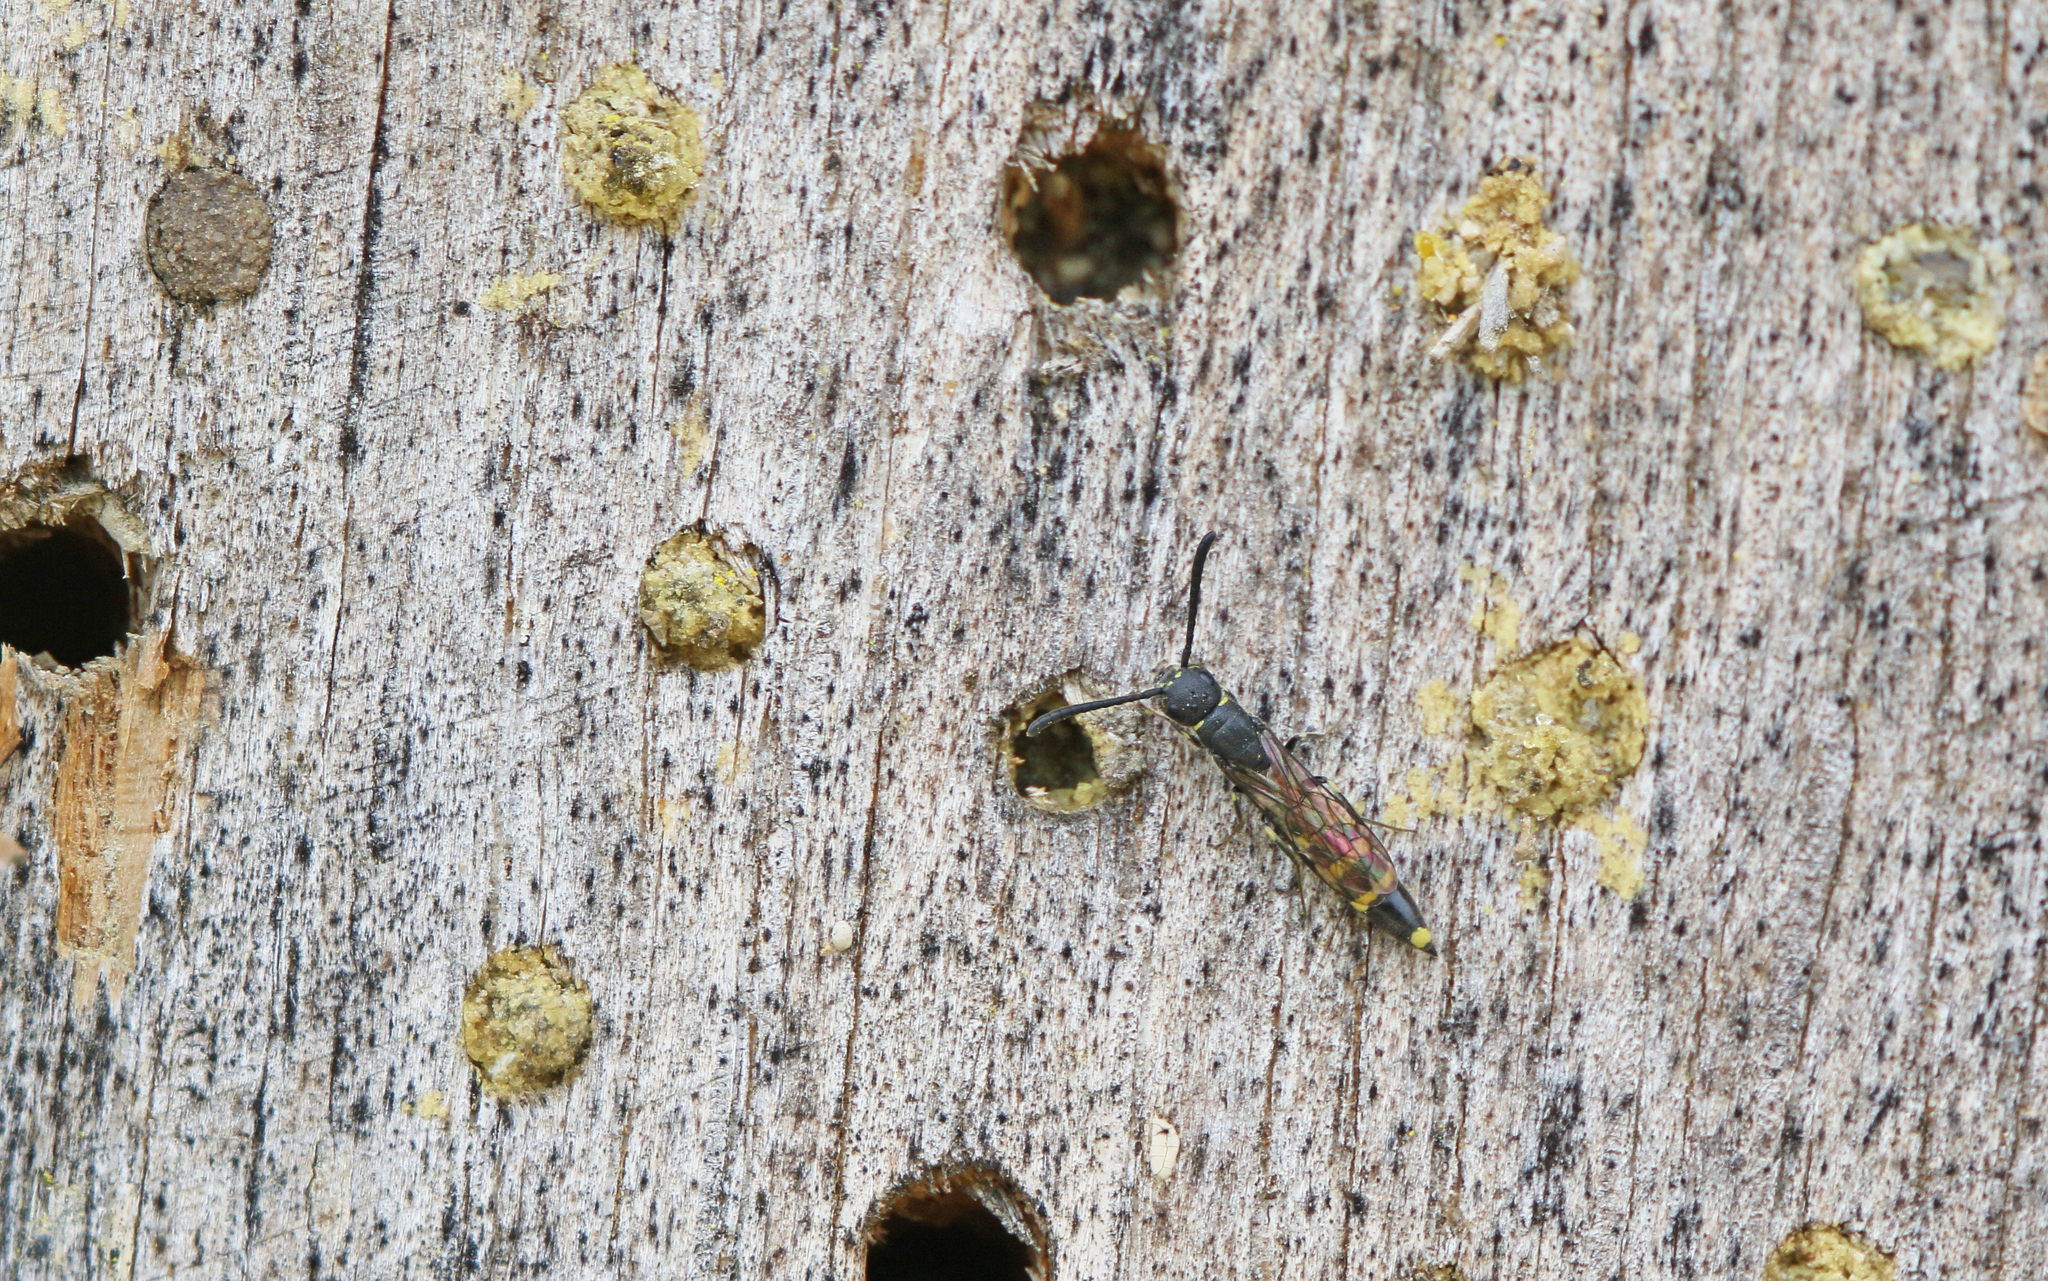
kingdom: Animalia
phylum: Arthropoda
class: Insecta
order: Hymenoptera
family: Sapygidae
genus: Monosapyga
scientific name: Monosapyga clavicornis
